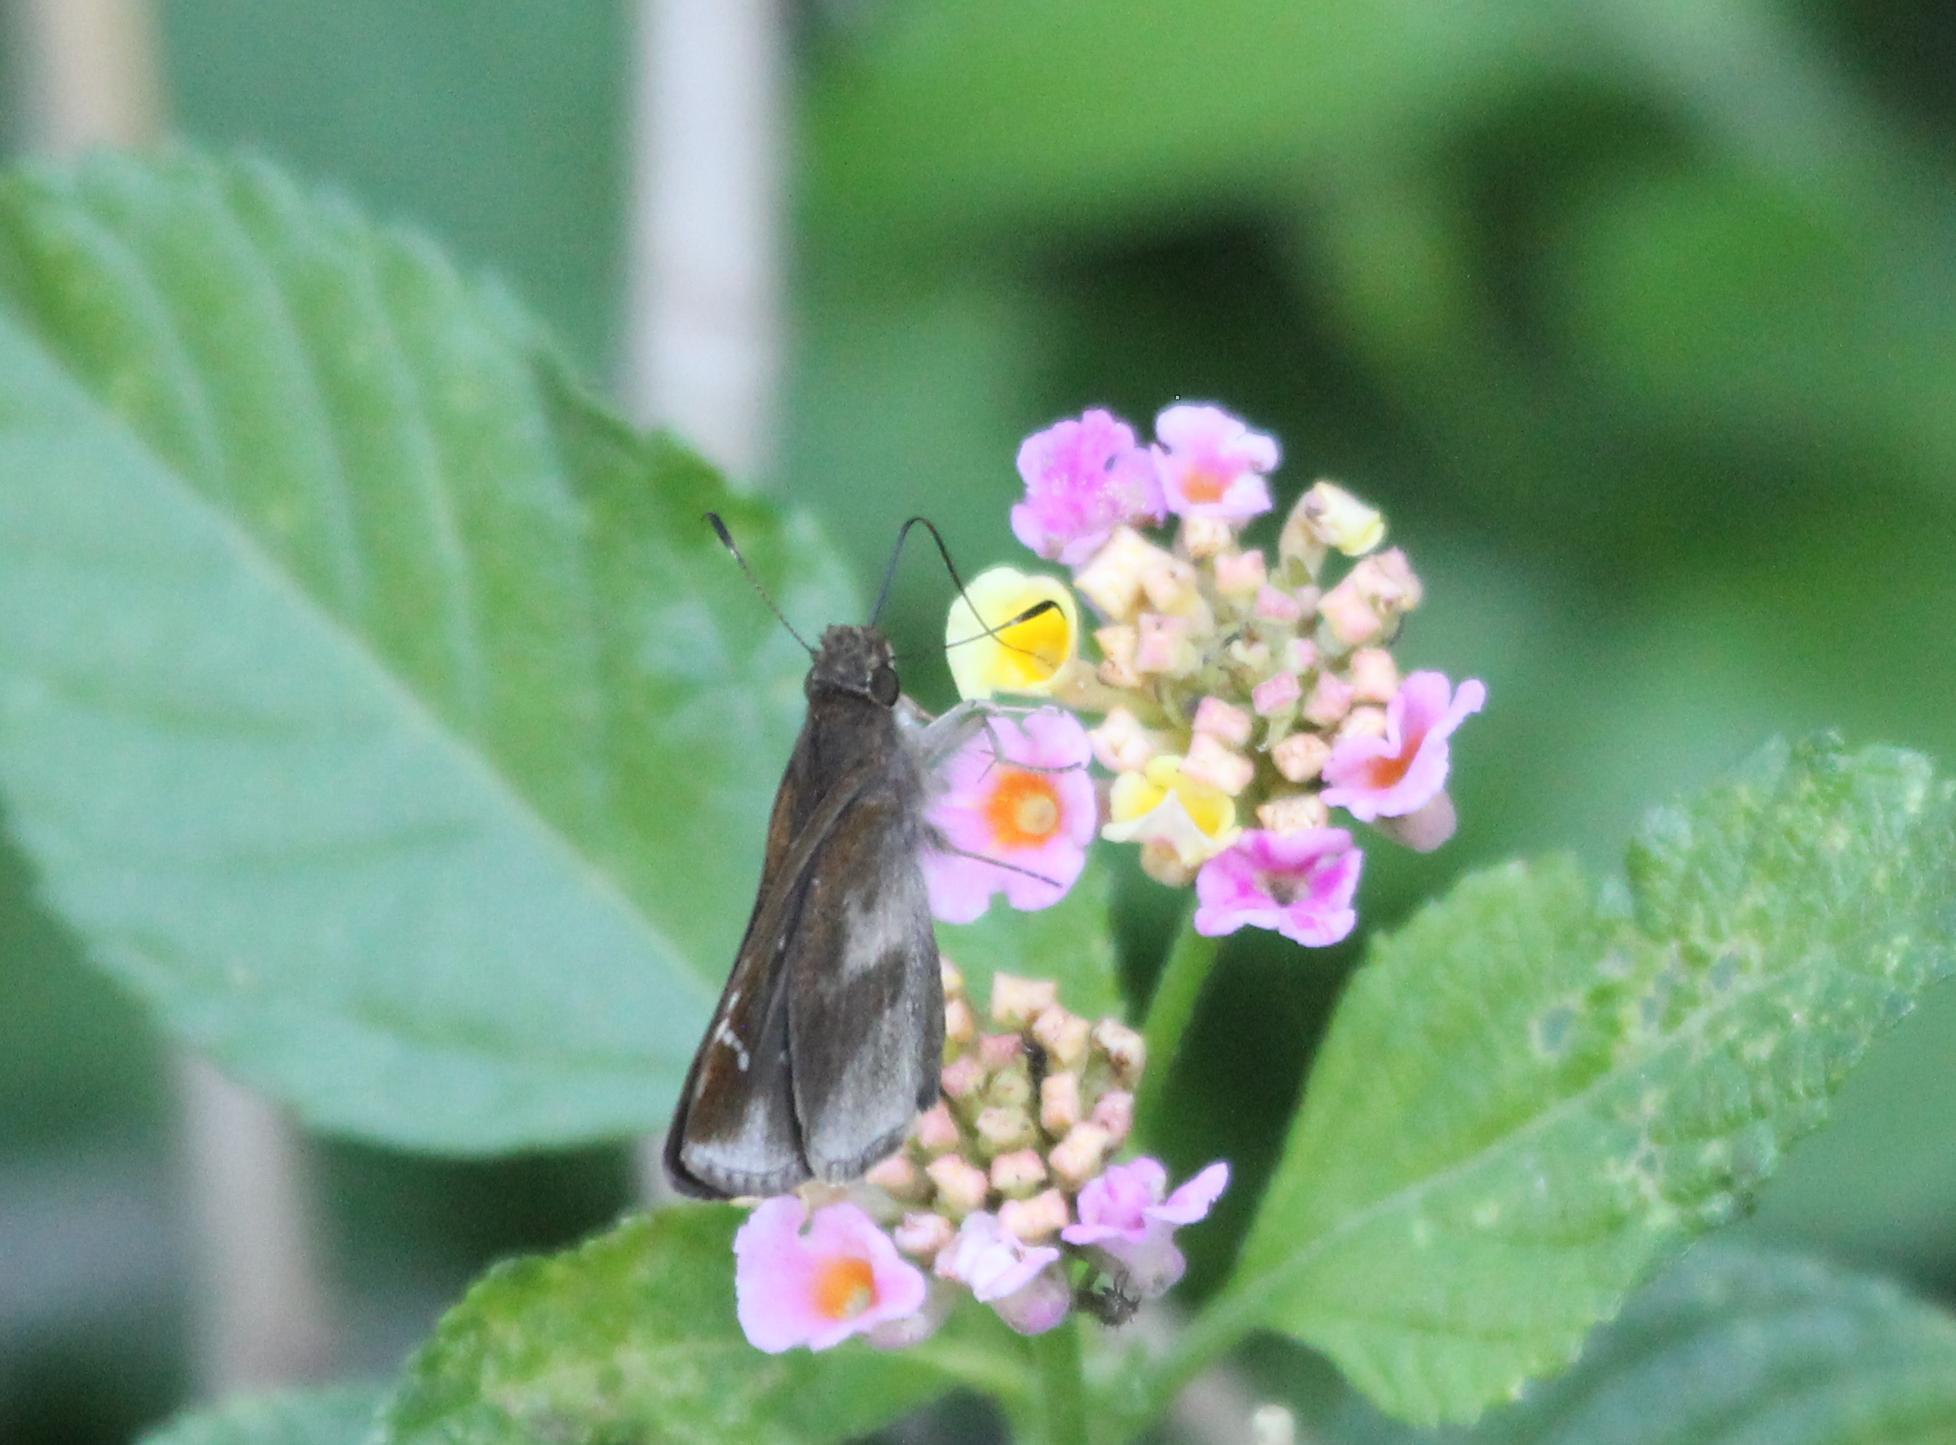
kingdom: Animalia
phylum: Arthropoda
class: Insecta
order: Lepidoptera
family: Hesperiidae
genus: Lerema
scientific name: Lerema accius
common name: Clouded skipper
